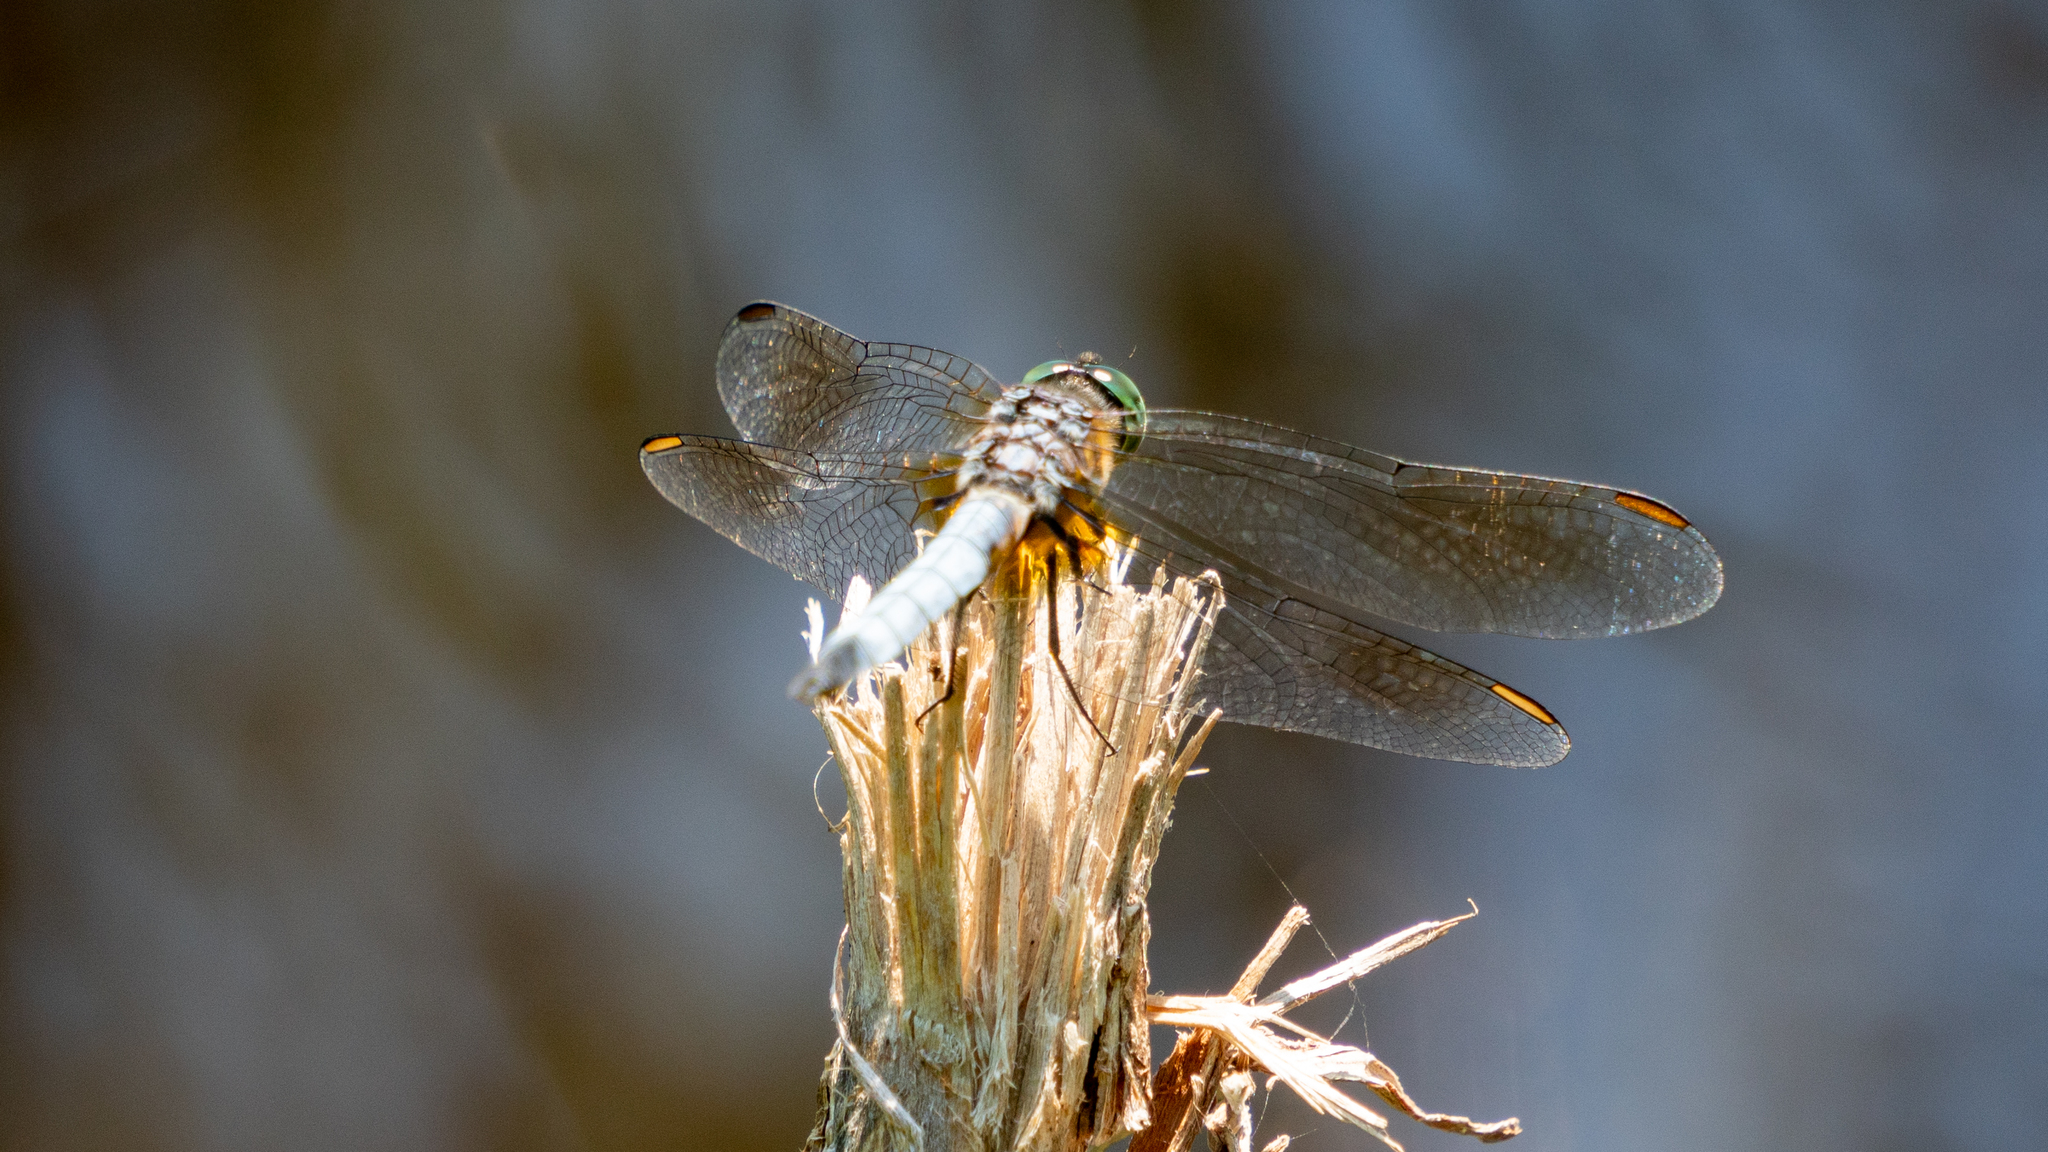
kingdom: Animalia
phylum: Arthropoda
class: Insecta
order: Odonata
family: Libellulidae
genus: Pachydiplax
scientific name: Pachydiplax longipennis
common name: Blue dasher
